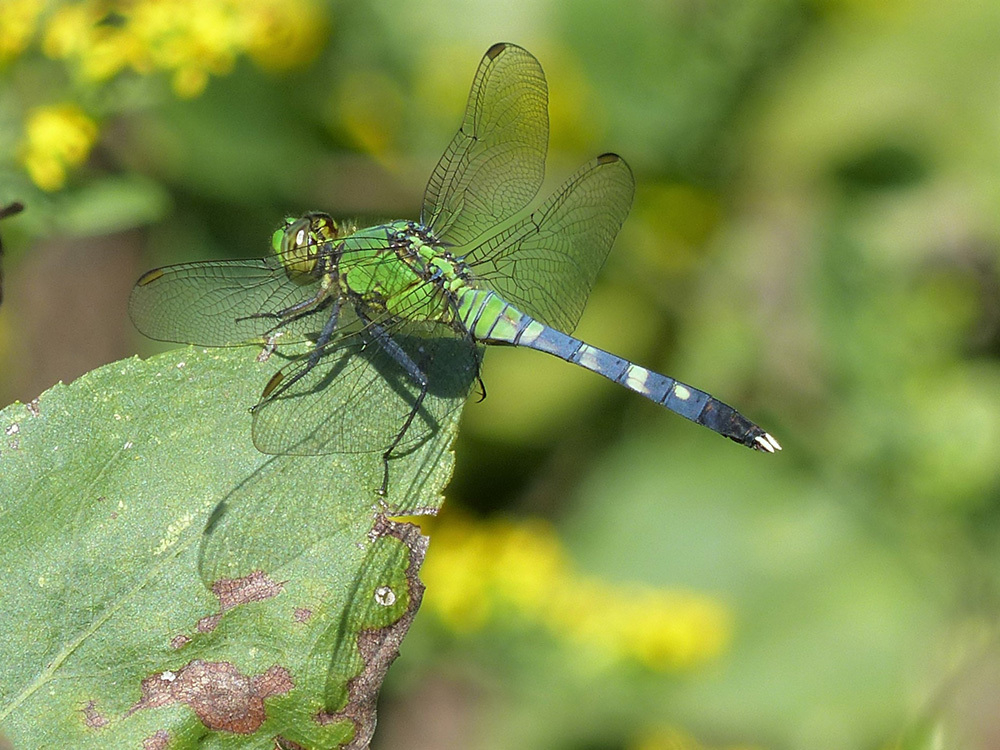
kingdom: Animalia
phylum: Arthropoda
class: Insecta
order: Odonata
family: Libellulidae
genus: Erythemis
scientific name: Erythemis simplicicollis
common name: Eastern pondhawk
